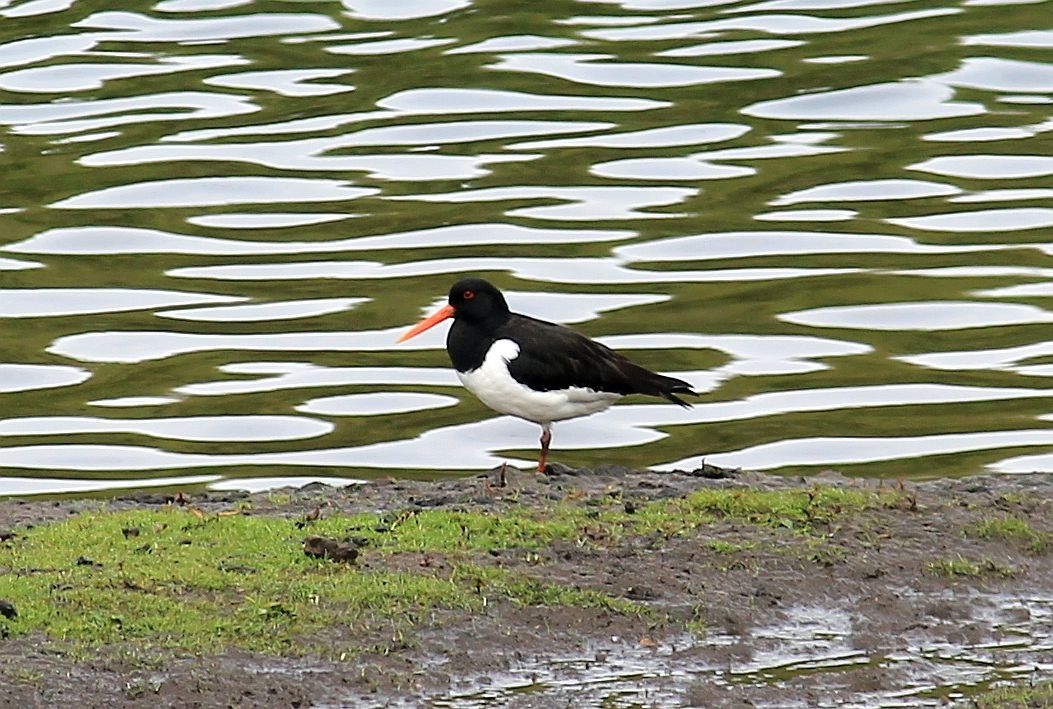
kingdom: Animalia
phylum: Chordata
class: Aves
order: Charadriiformes
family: Haematopodidae
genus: Haematopus
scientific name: Haematopus ostralegus
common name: Eurasian oystercatcher
